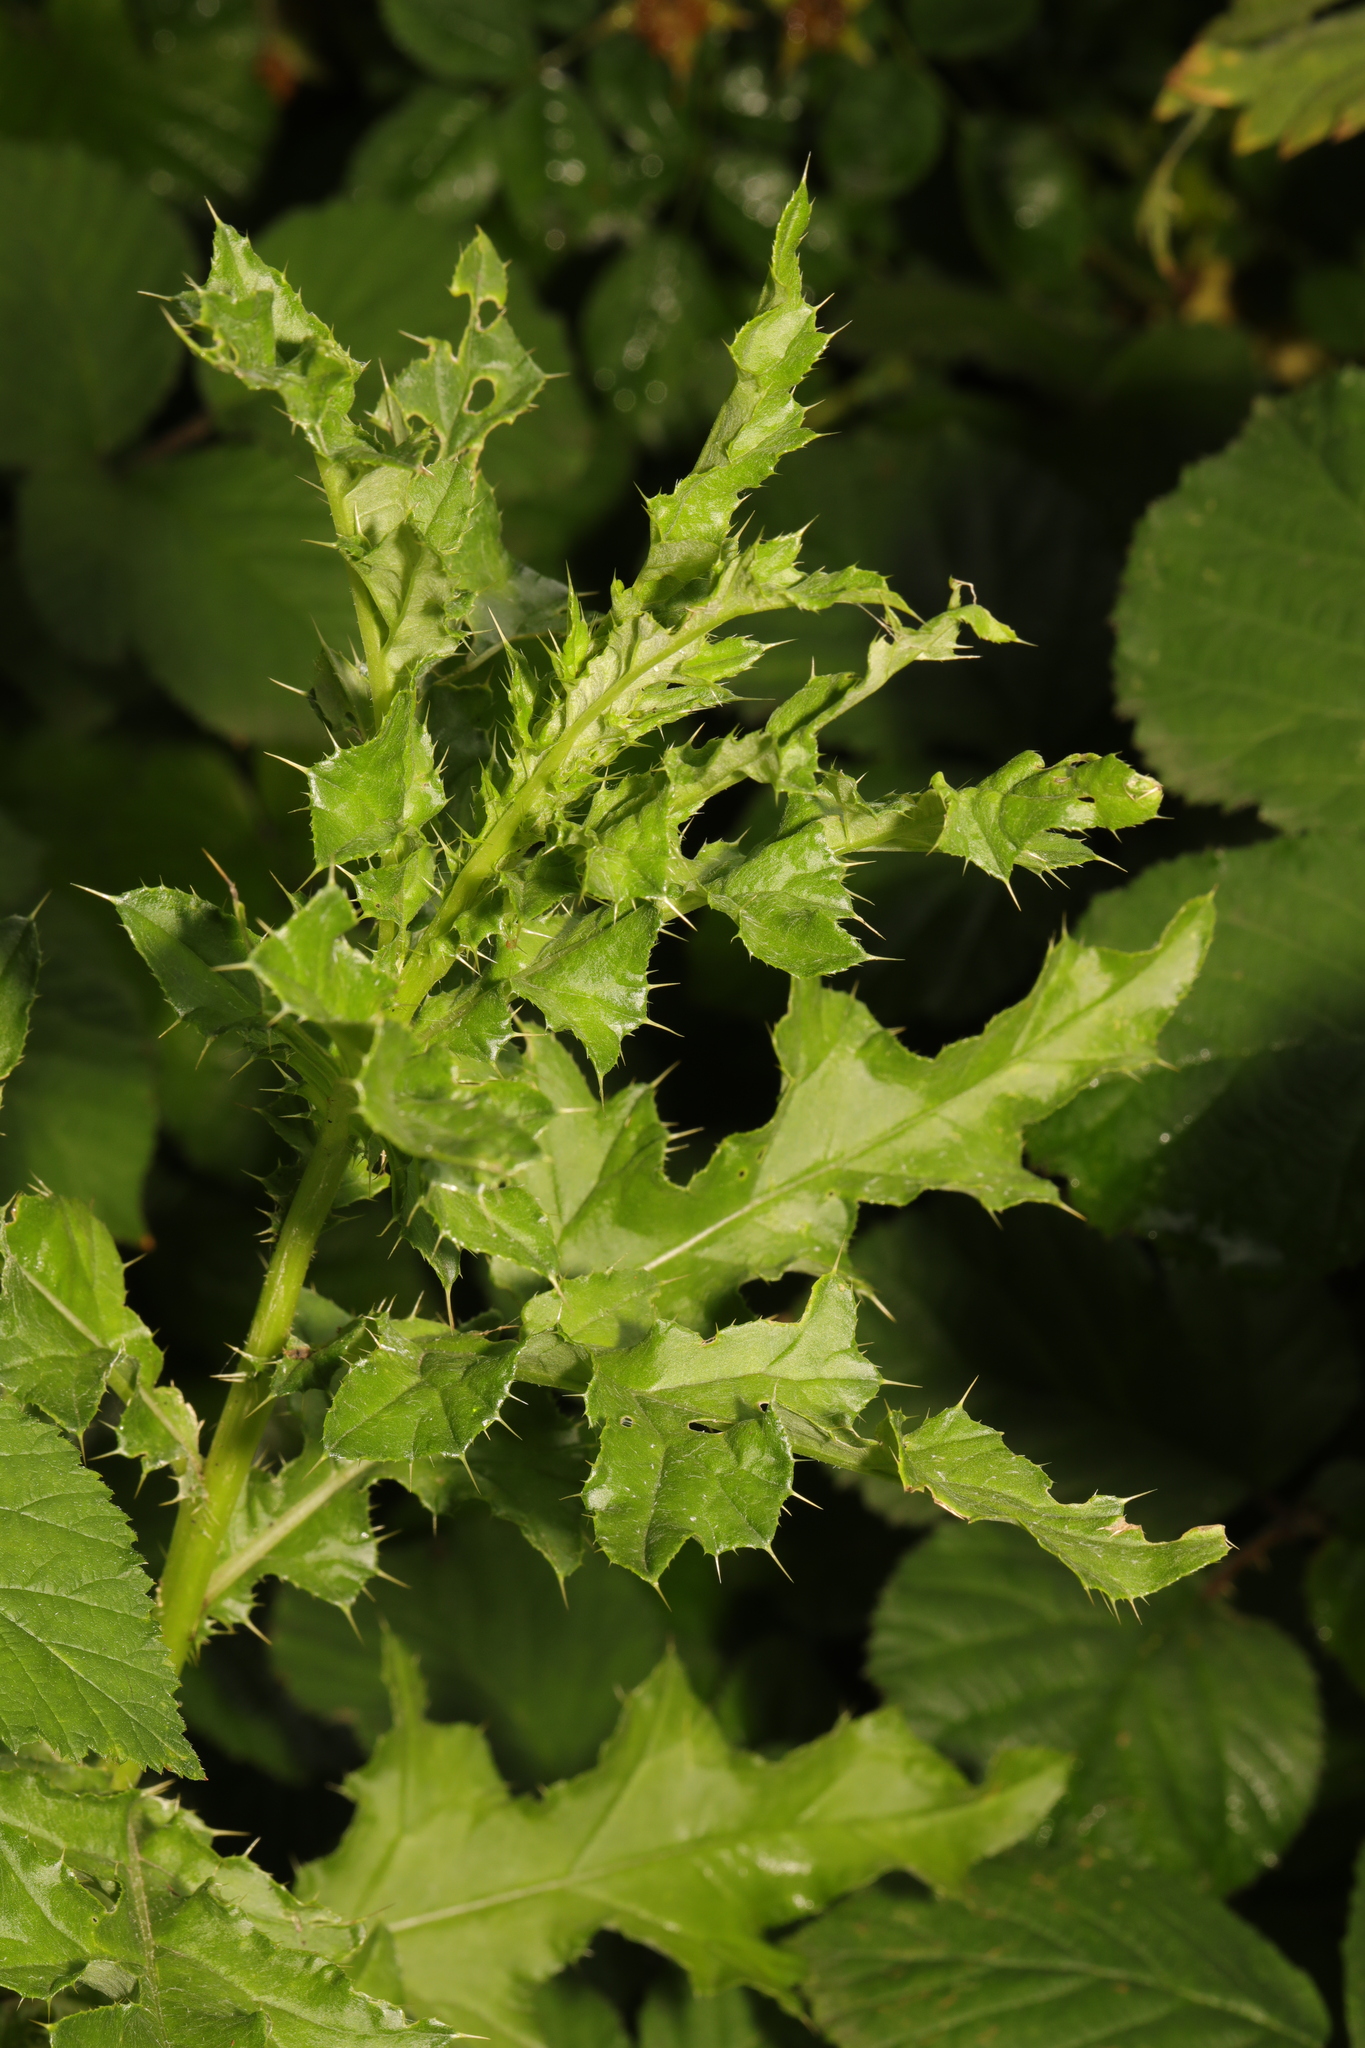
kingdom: Plantae
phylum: Tracheophyta
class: Magnoliopsida
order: Asterales
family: Asteraceae
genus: Cirsium
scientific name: Cirsium arvense
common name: Creeping thistle
